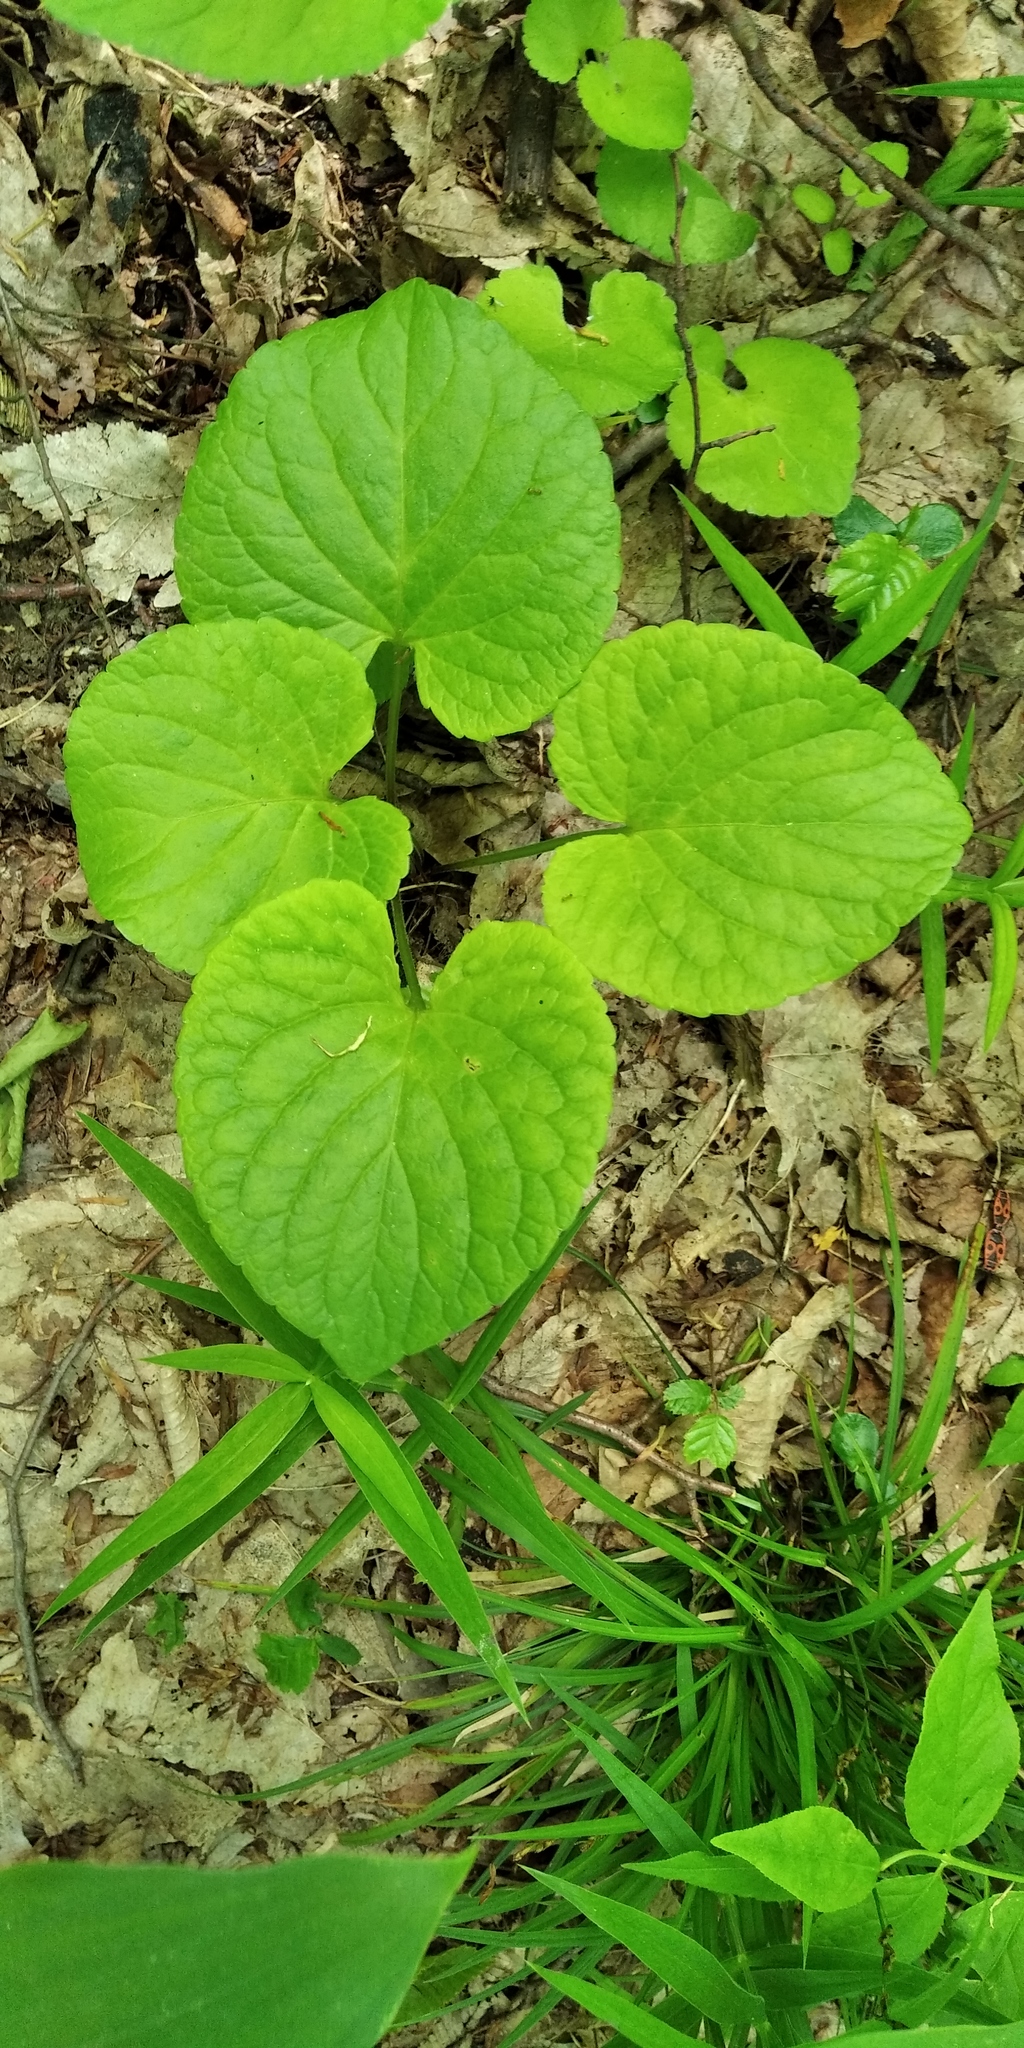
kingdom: Plantae
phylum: Tracheophyta
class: Magnoliopsida
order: Malpighiales
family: Violaceae
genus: Viola
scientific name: Viola odorata
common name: Sweet violet
